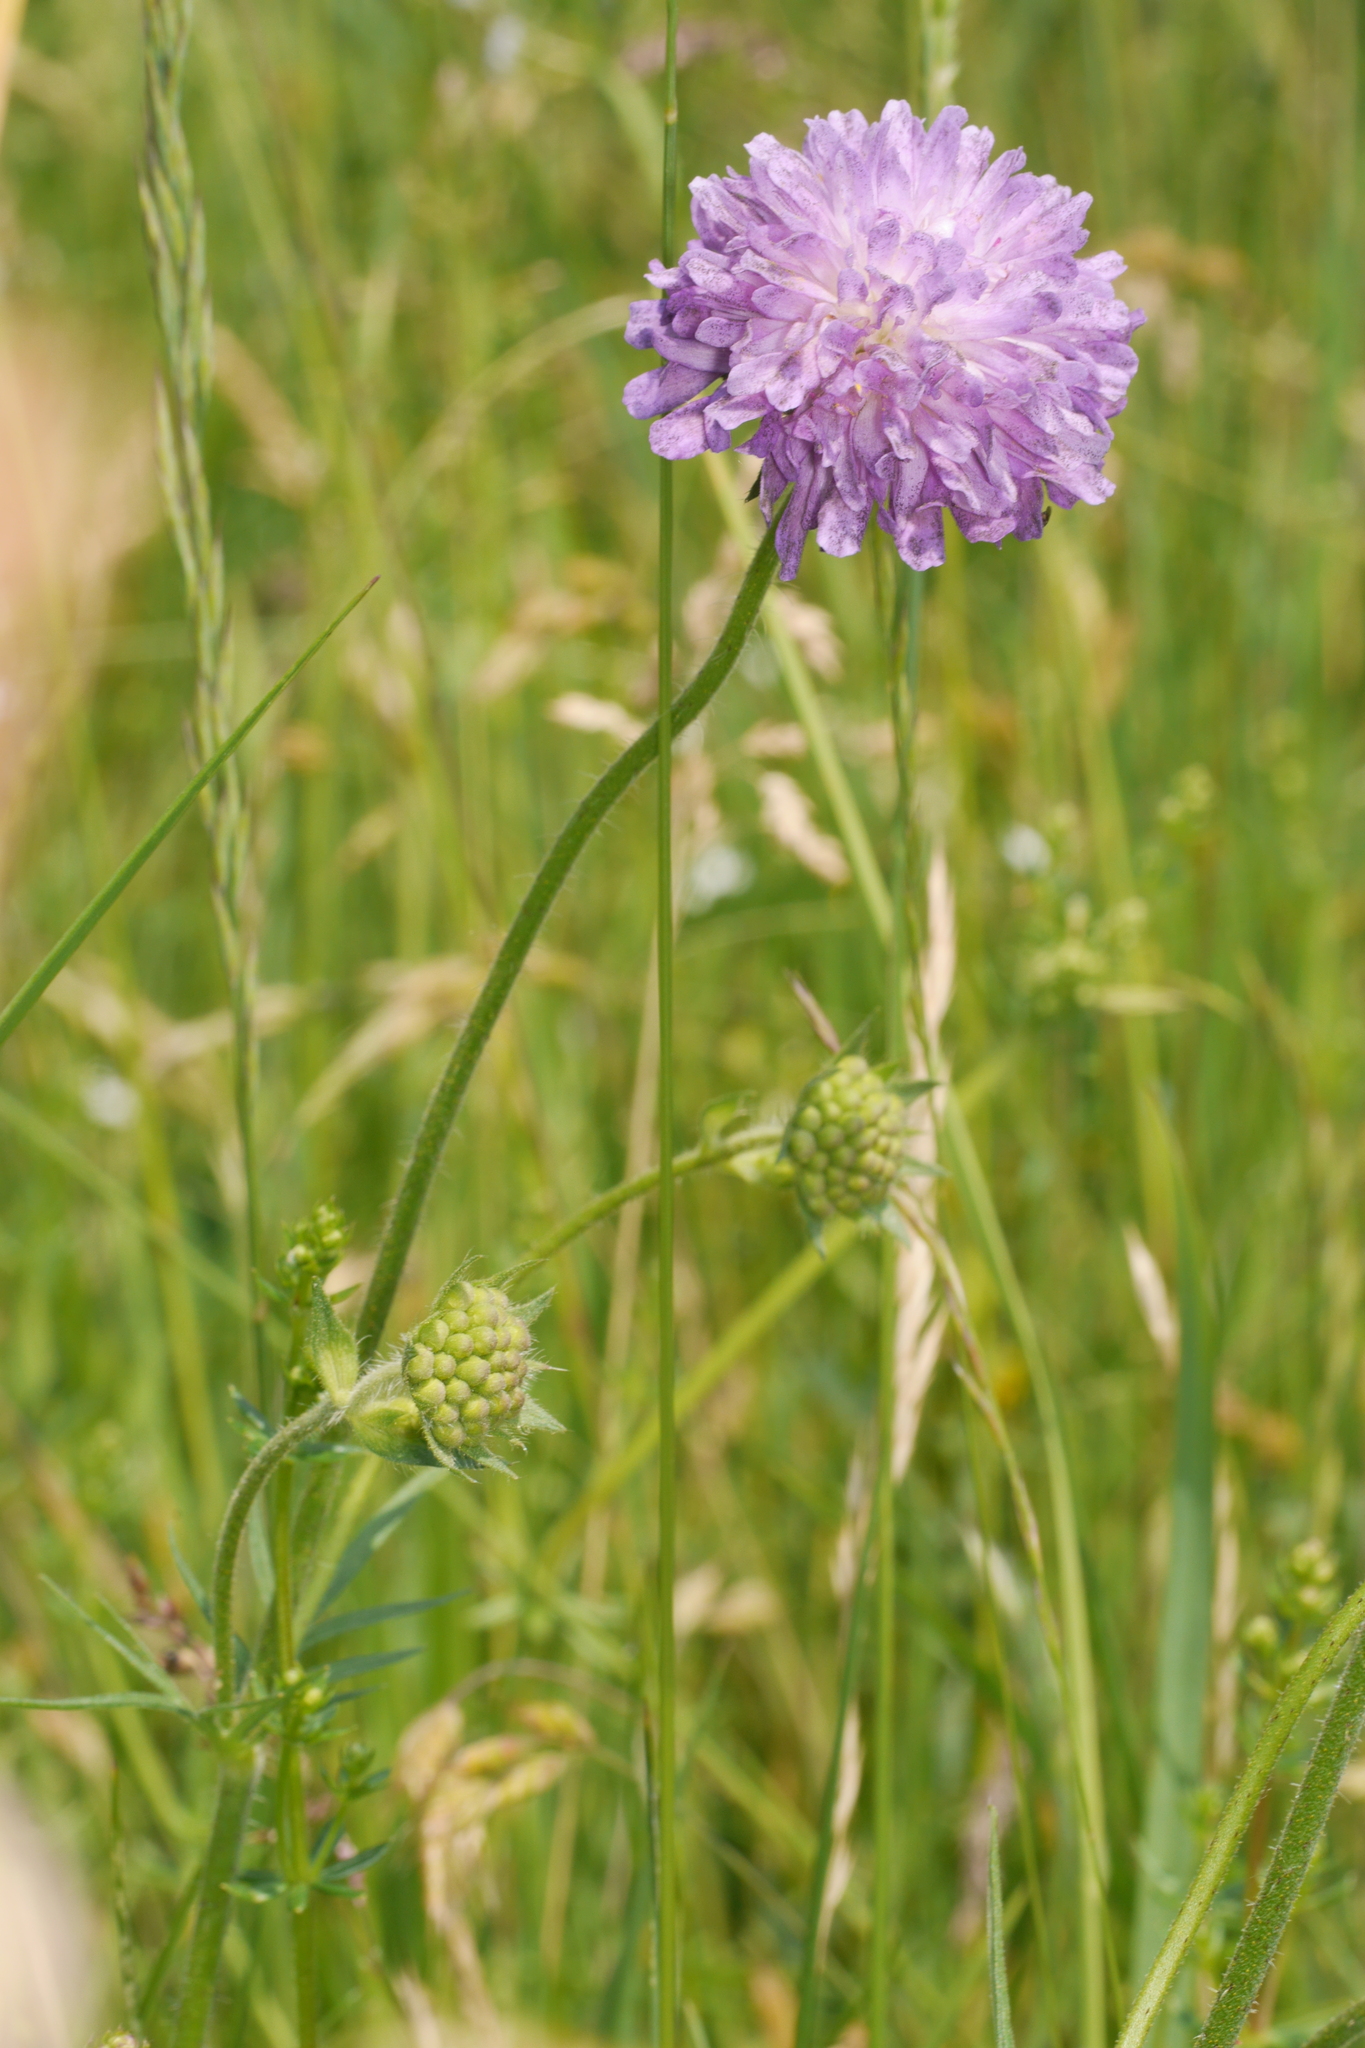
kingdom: Plantae
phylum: Tracheophyta
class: Magnoliopsida
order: Dipsacales
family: Caprifoliaceae
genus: Knautia
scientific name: Knautia arvensis
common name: Field scabiosa
